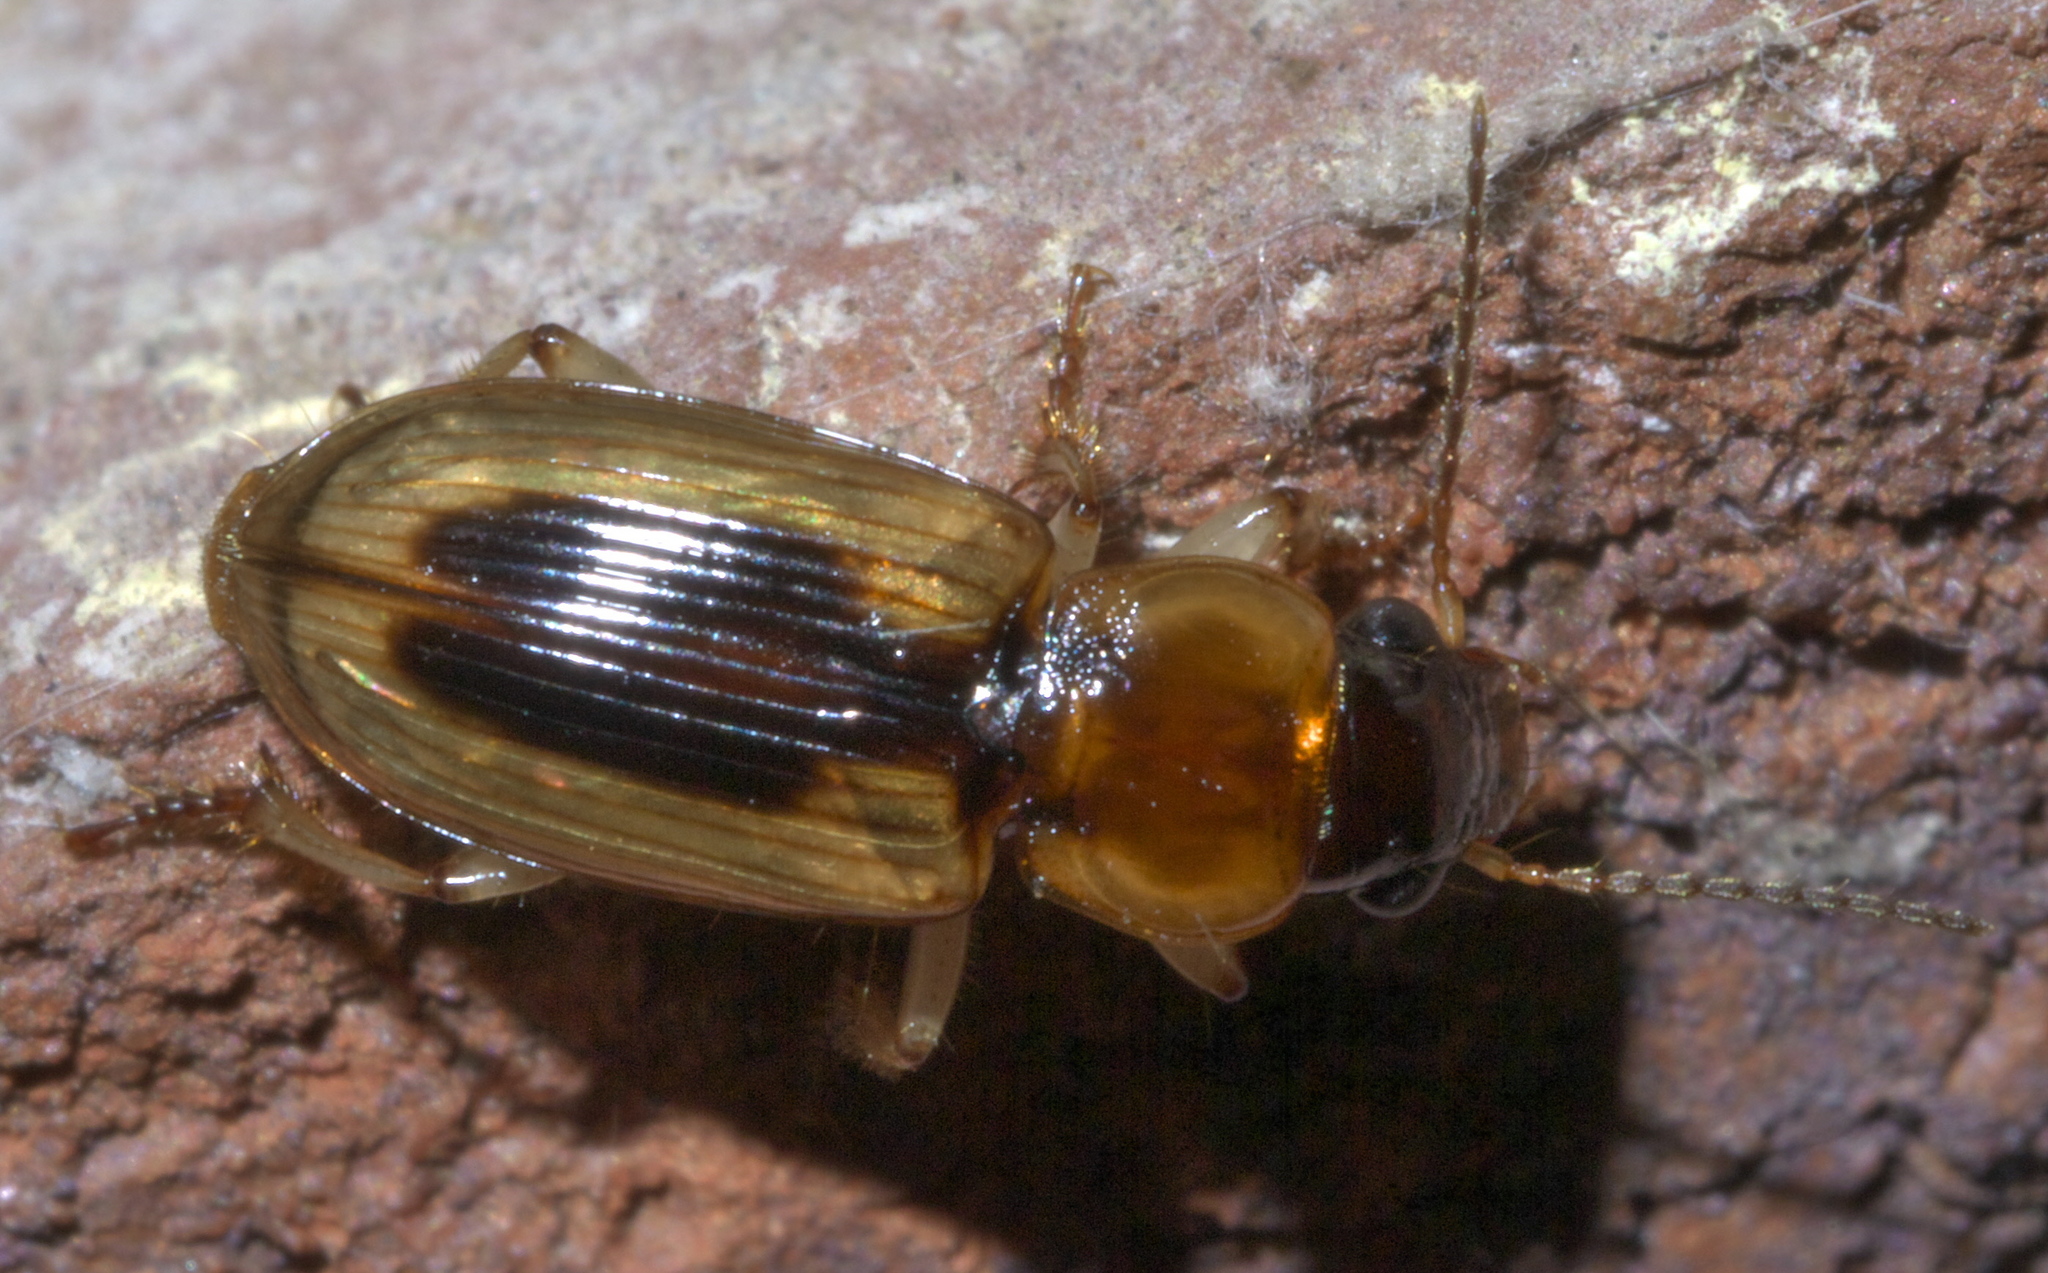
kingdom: Animalia
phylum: Arthropoda
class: Insecta
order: Coleoptera
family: Carabidae
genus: Stenolophus
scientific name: Stenolophus lecontei
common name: Leconte's seedcorn beetle
